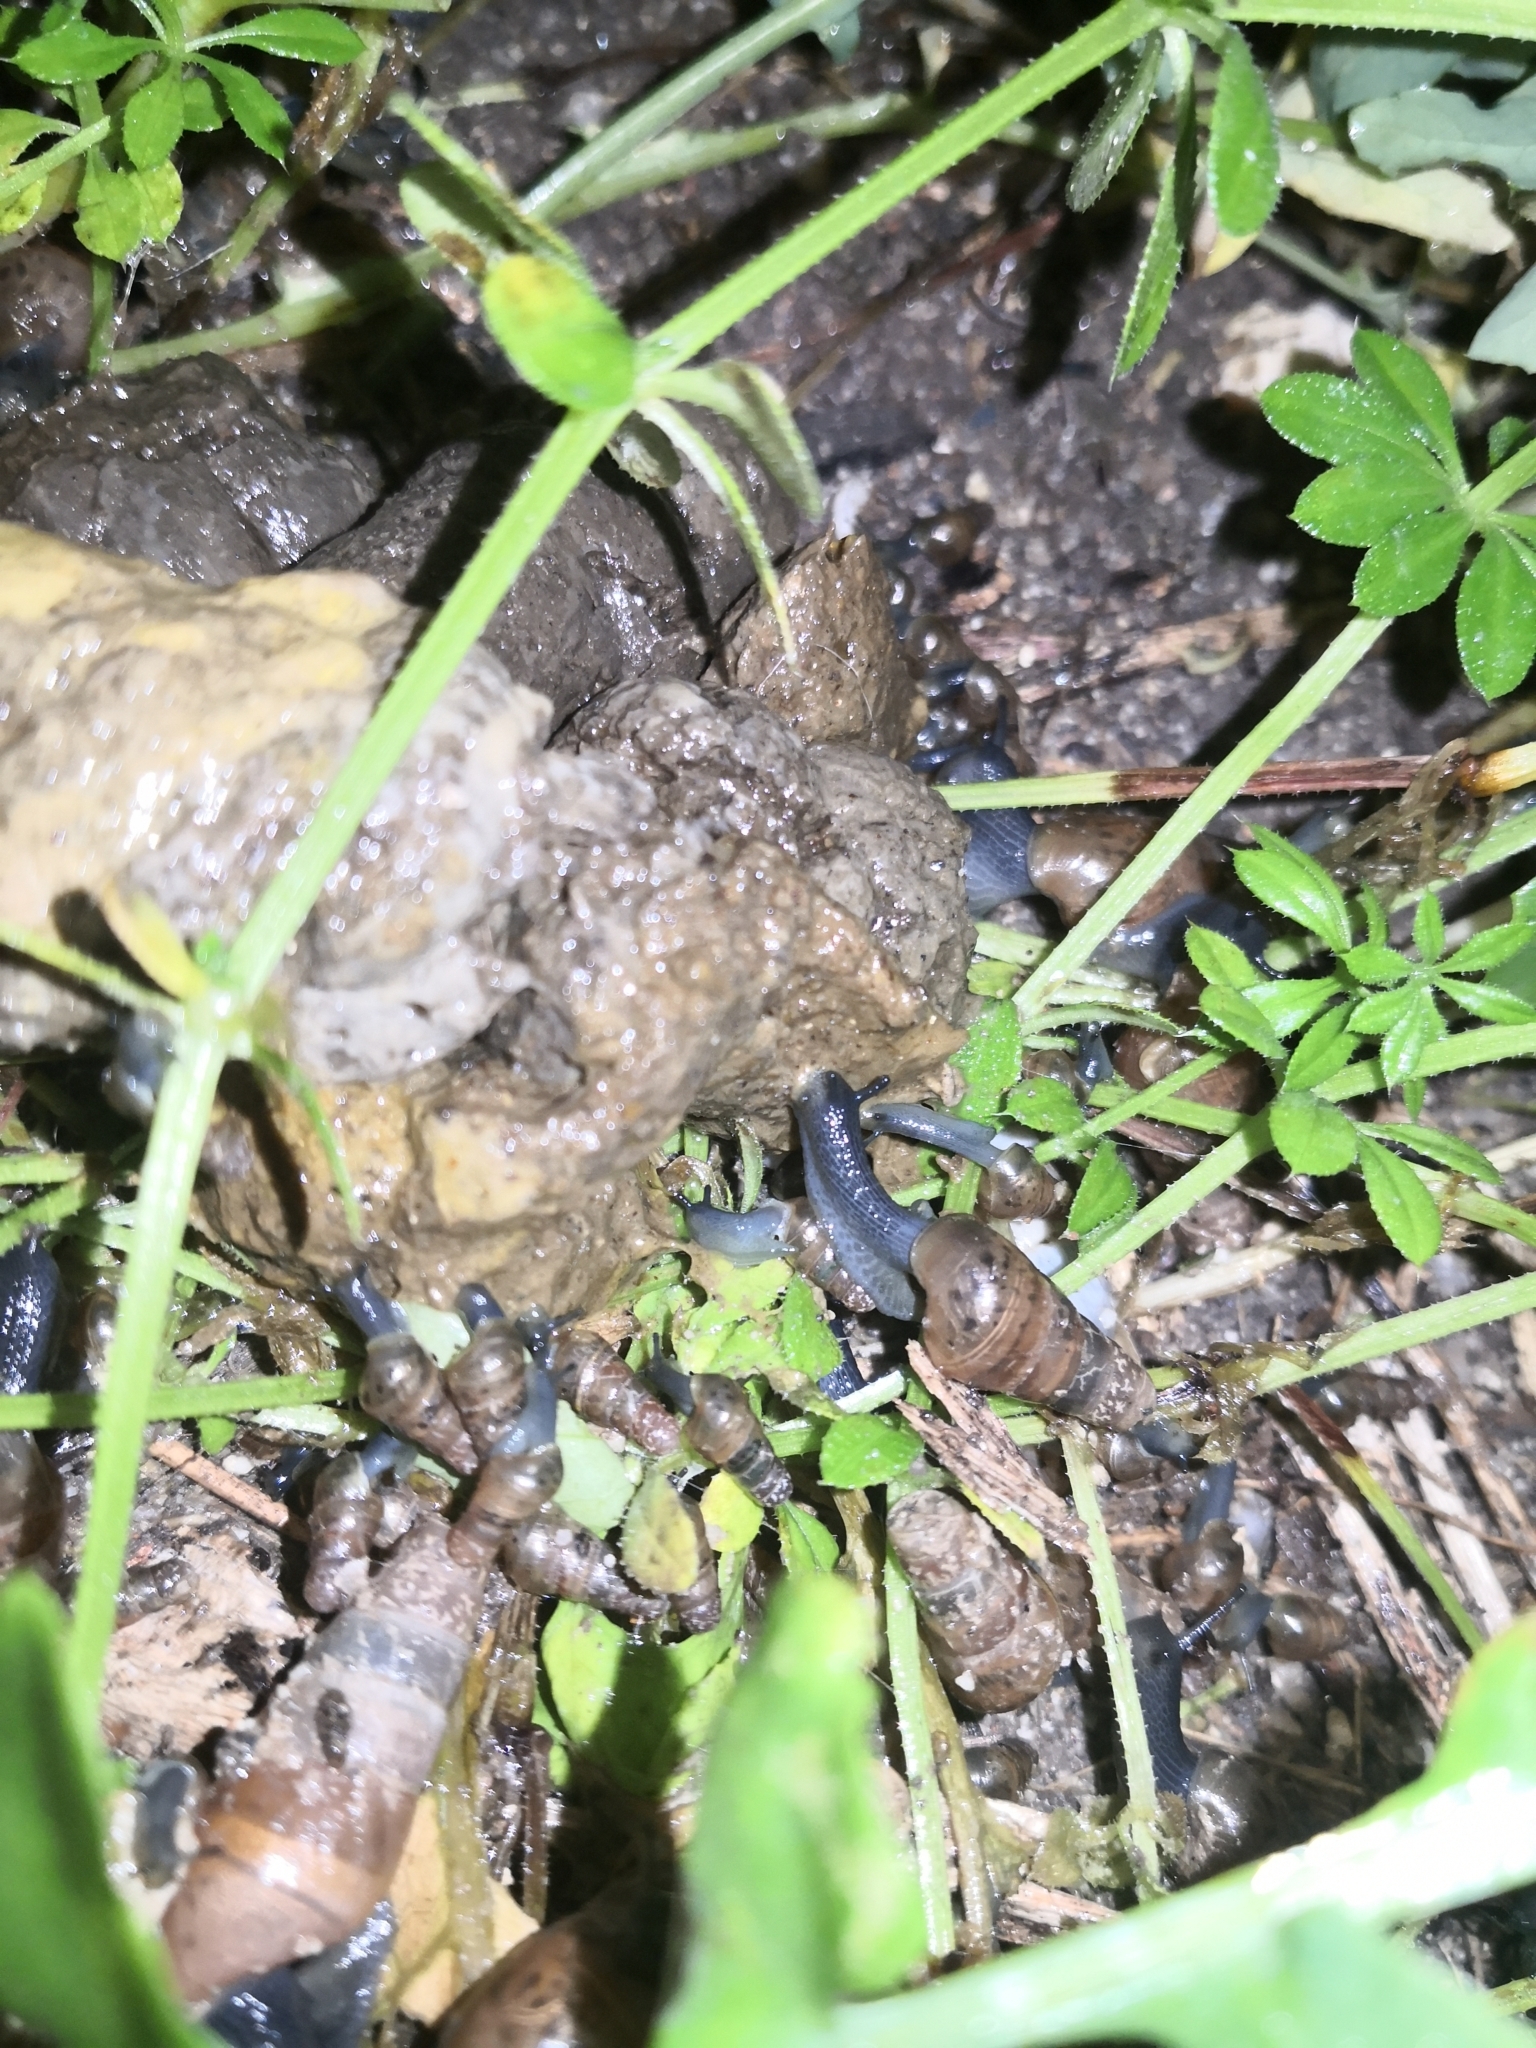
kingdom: Animalia
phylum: Mollusca
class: Gastropoda
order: Stylommatophora
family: Achatinidae
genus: Rumina
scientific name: Rumina decollata
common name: Decollate snail
